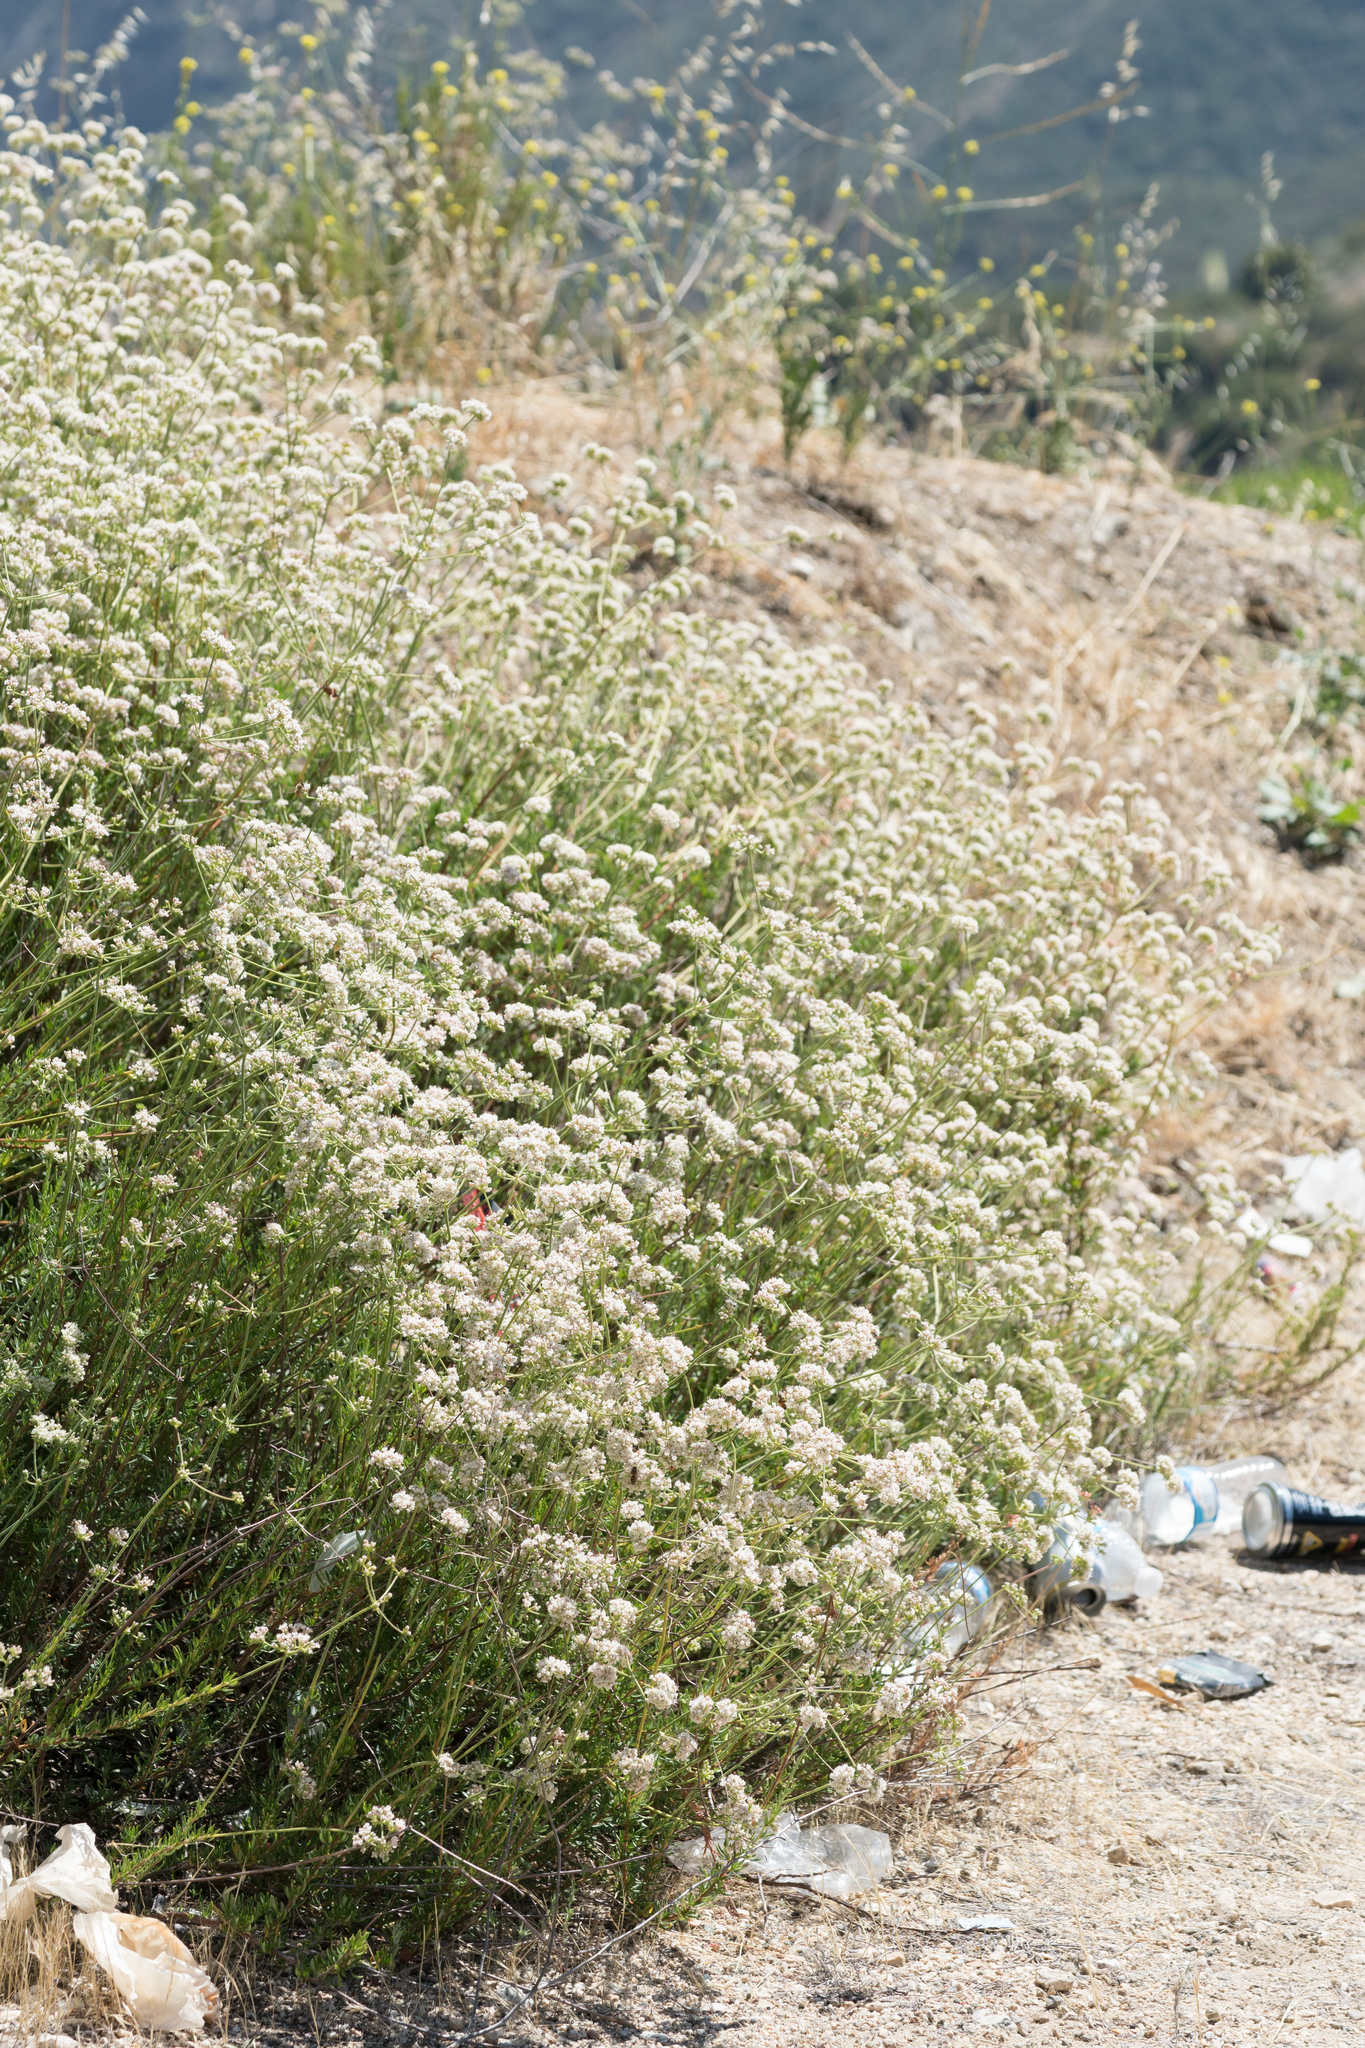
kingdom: Plantae
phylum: Tracheophyta
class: Magnoliopsida
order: Caryophyllales
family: Polygonaceae
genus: Eriogonum
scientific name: Eriogonum fasciculatum
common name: California wild buckwheat
